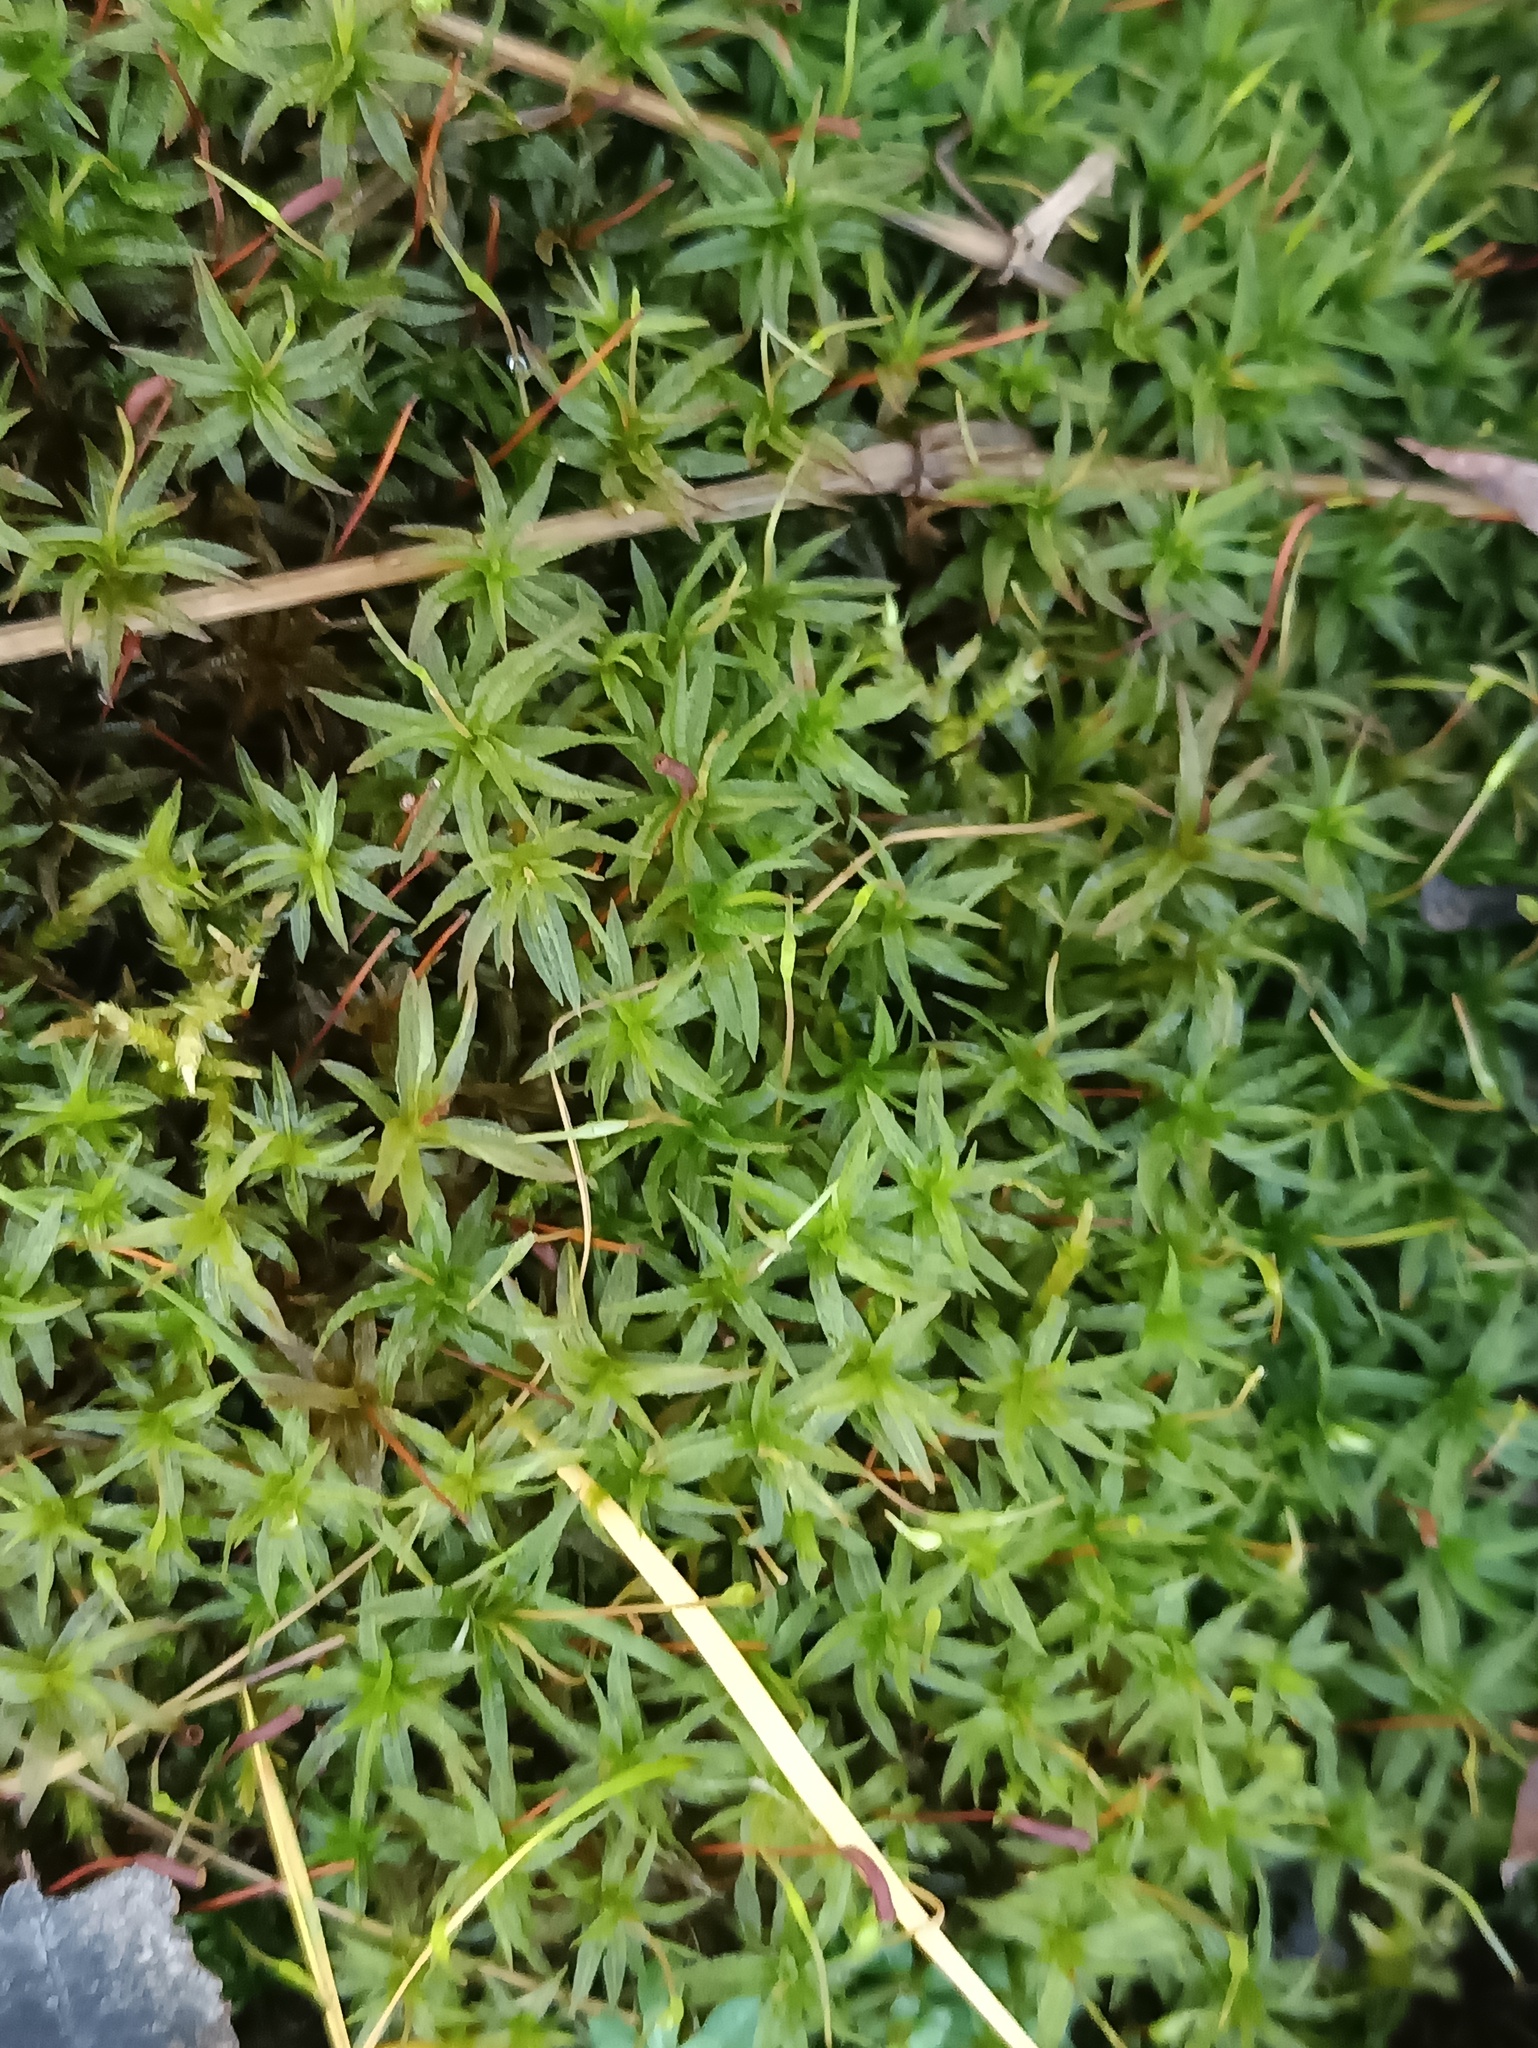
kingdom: Plantae
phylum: Bryophyta
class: Polytrichopsida
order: Polytrichales
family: Polytrichaceae
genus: Atrichum
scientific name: Atrichum undulatum
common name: Common smoothcap
